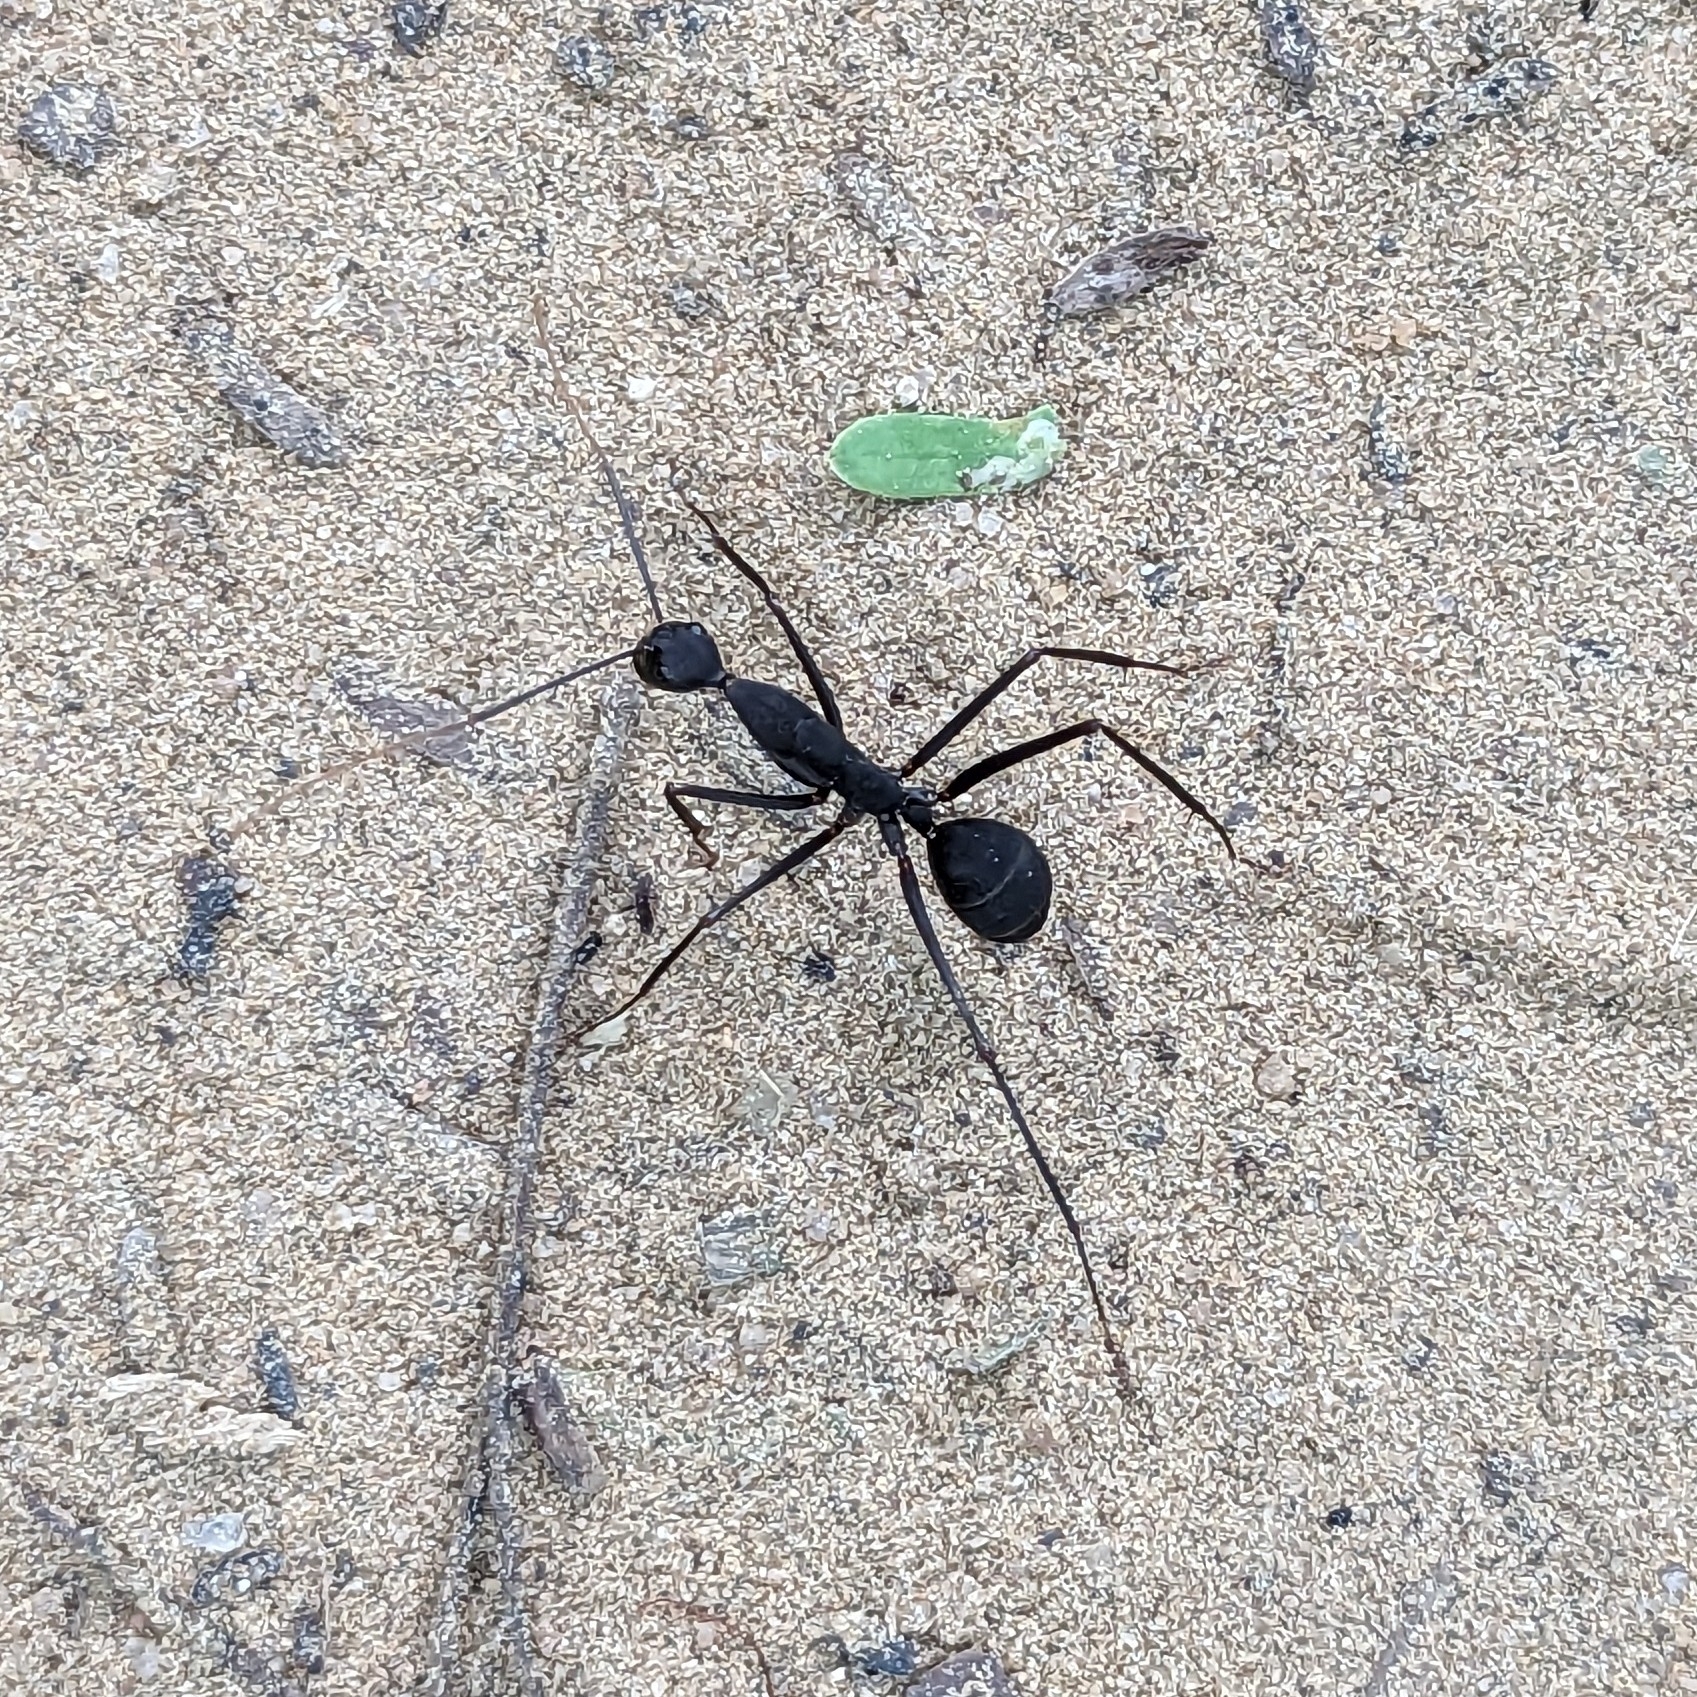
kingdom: Animalia
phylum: Arthropoda
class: Insecta
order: Hymenoptera
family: Formicidae
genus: Camponotus
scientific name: Camponotus angusticollis
